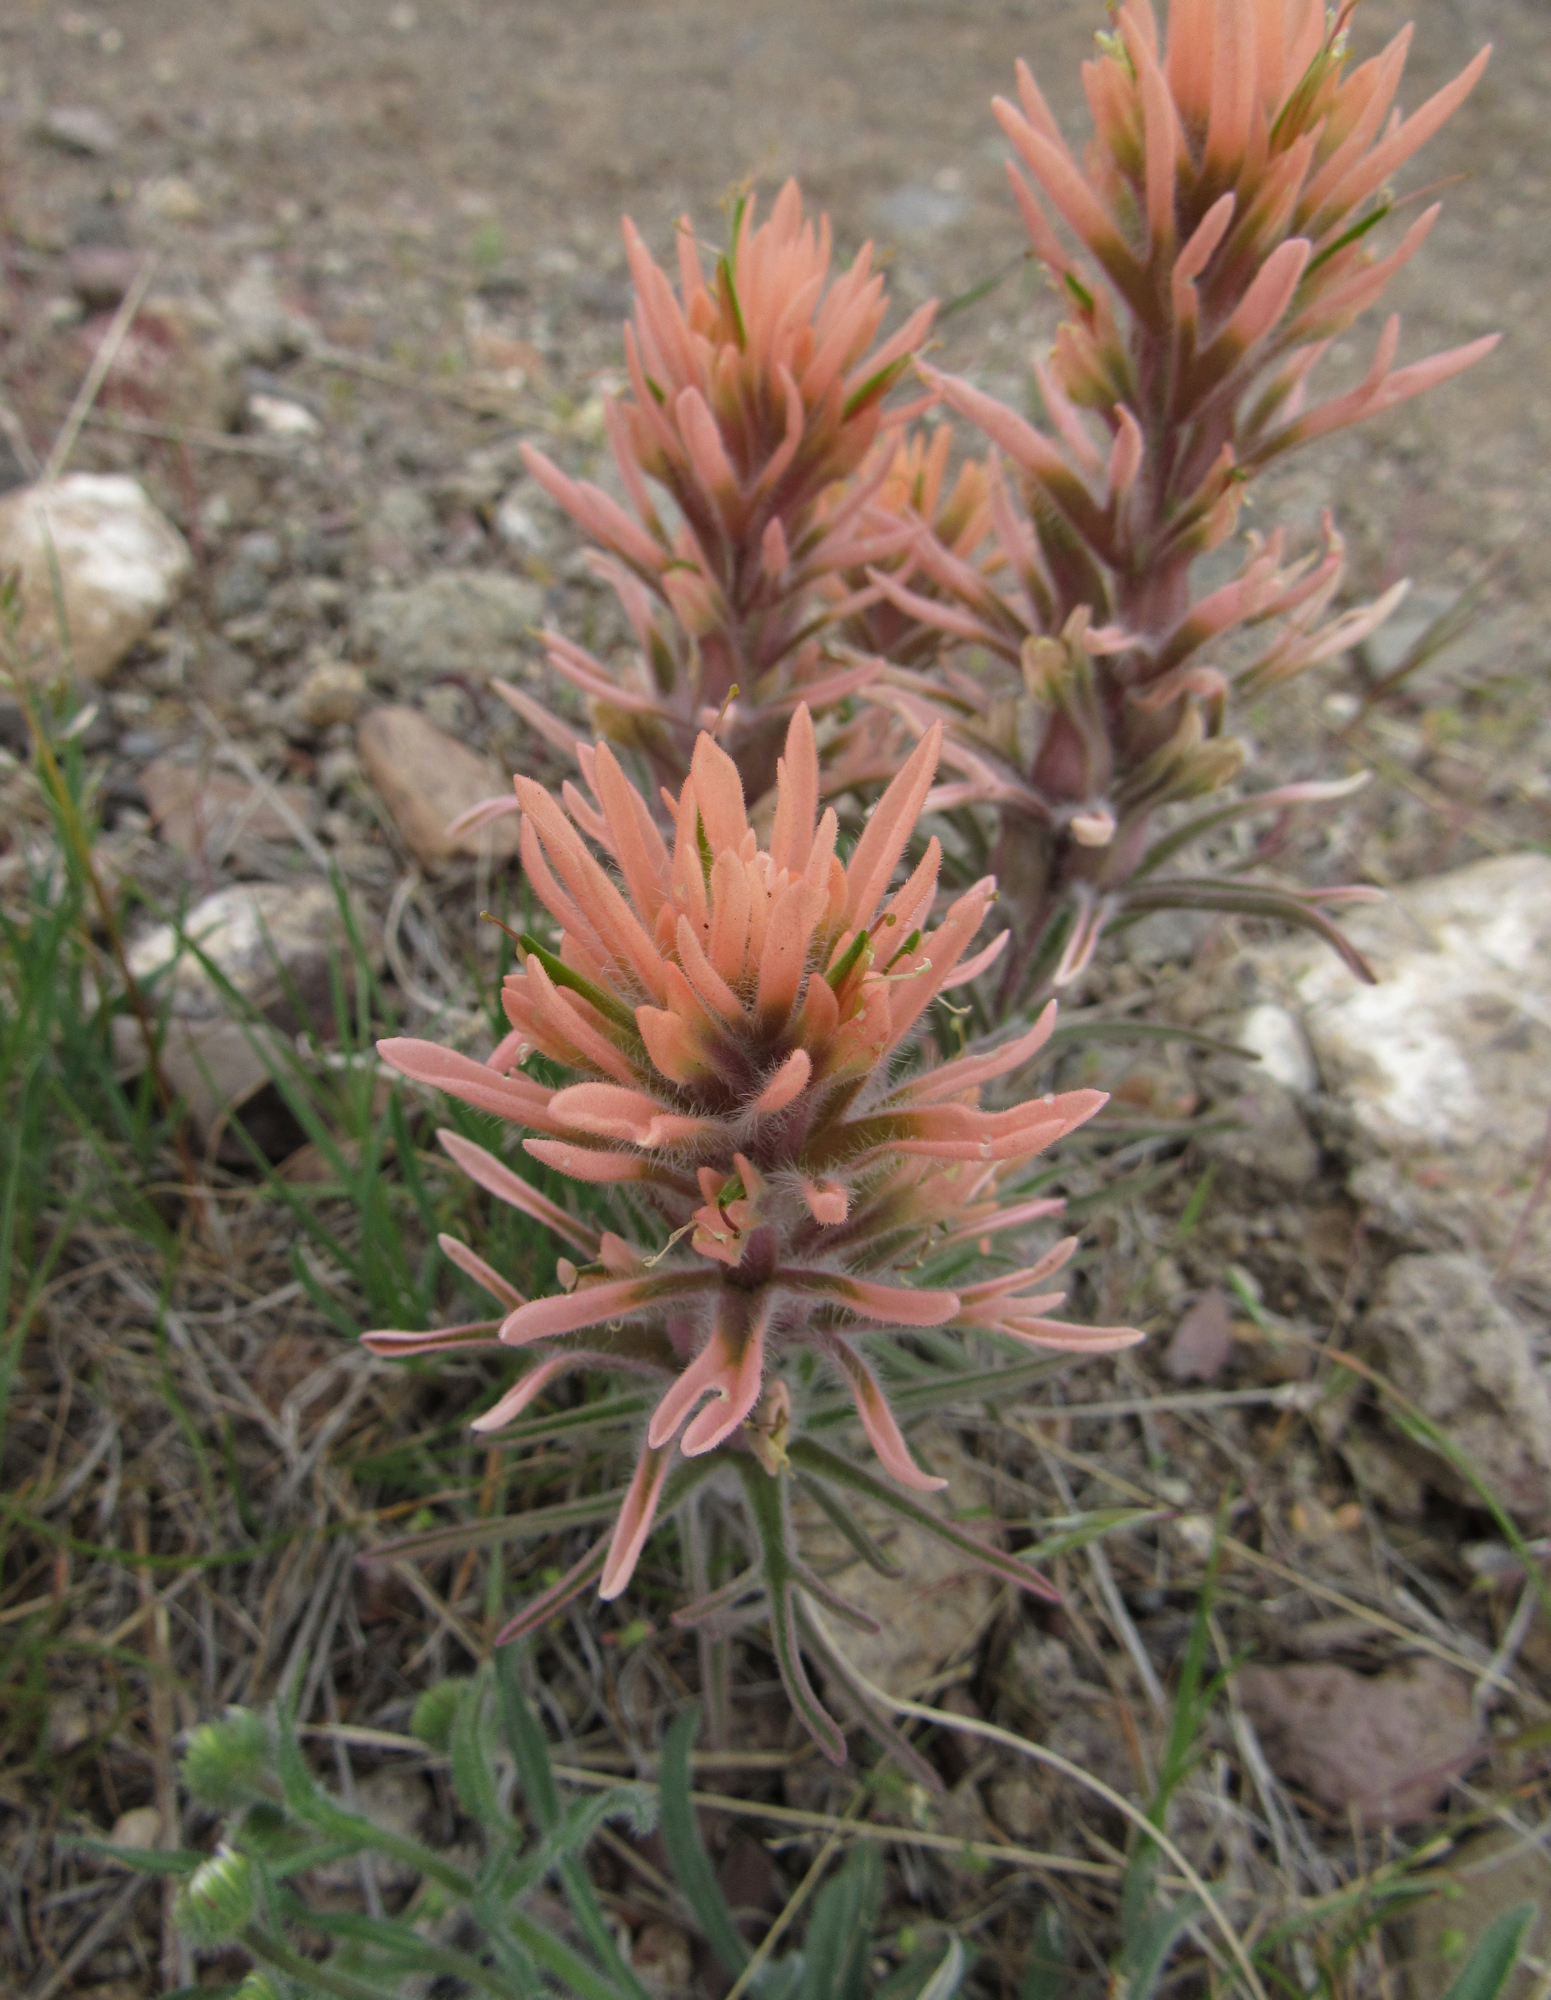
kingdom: Plantae
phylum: Tracheophyta
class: Magnoliopsida
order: Lamiales
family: Orobanchaceae
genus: Castilleja
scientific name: Castilleja angustifolia
